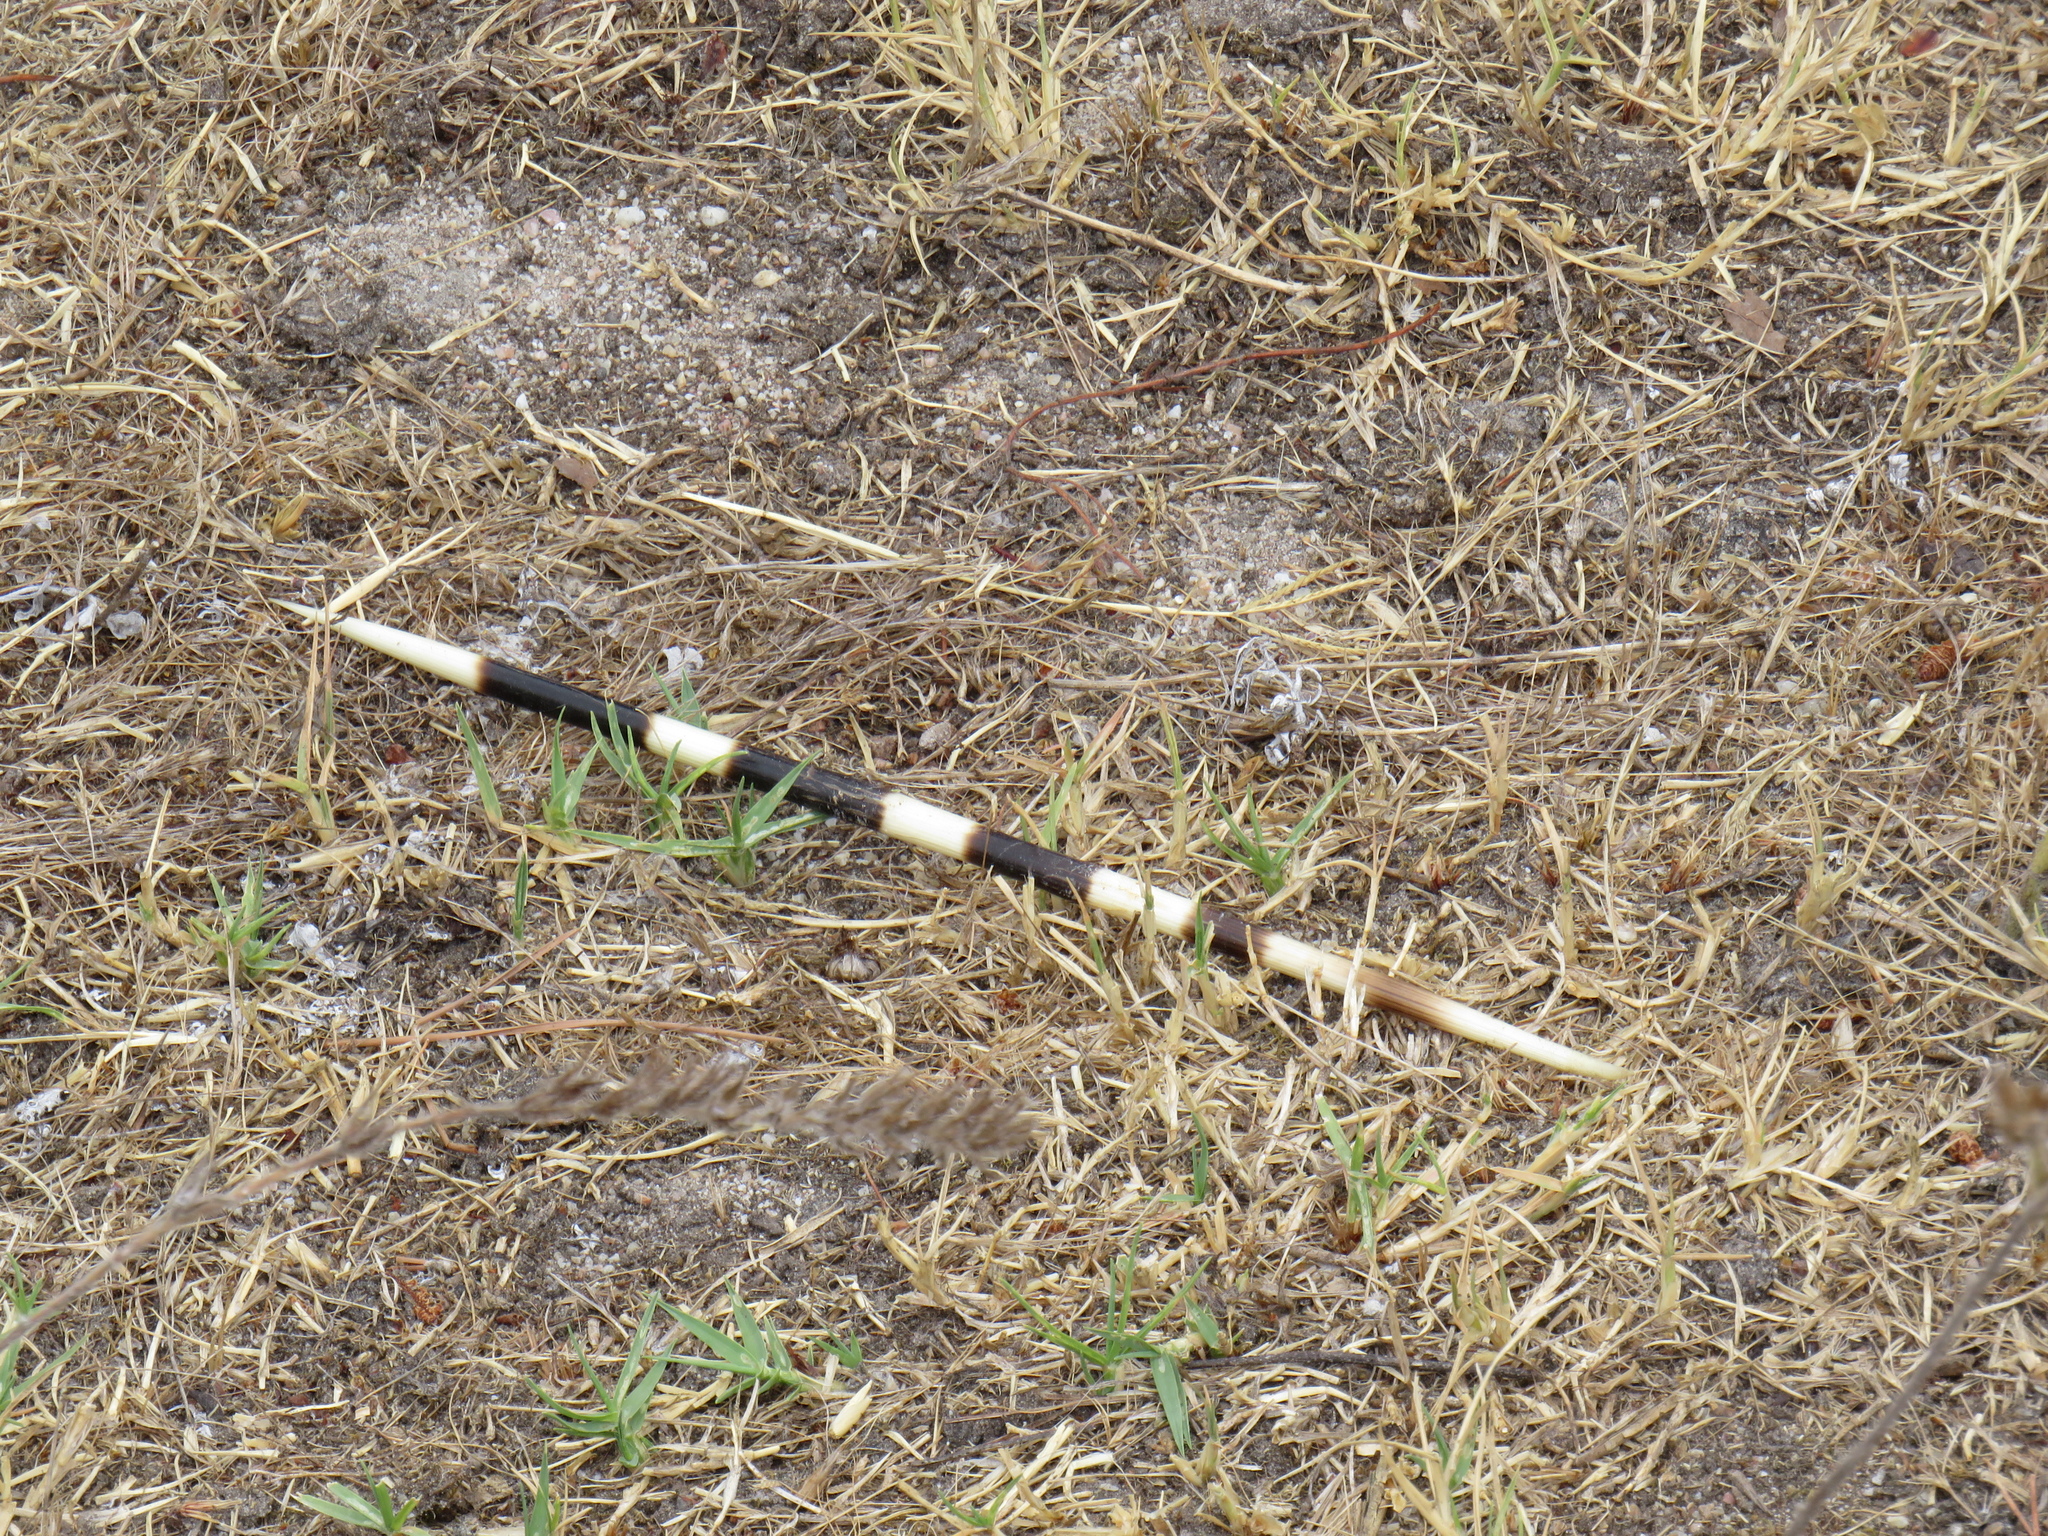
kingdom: Animalia
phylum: Chordata
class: Mammalia
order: Rodentia
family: Hystricidae
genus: Hystrix
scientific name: Hystrix africaeaustralis
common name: Cape porcupine
